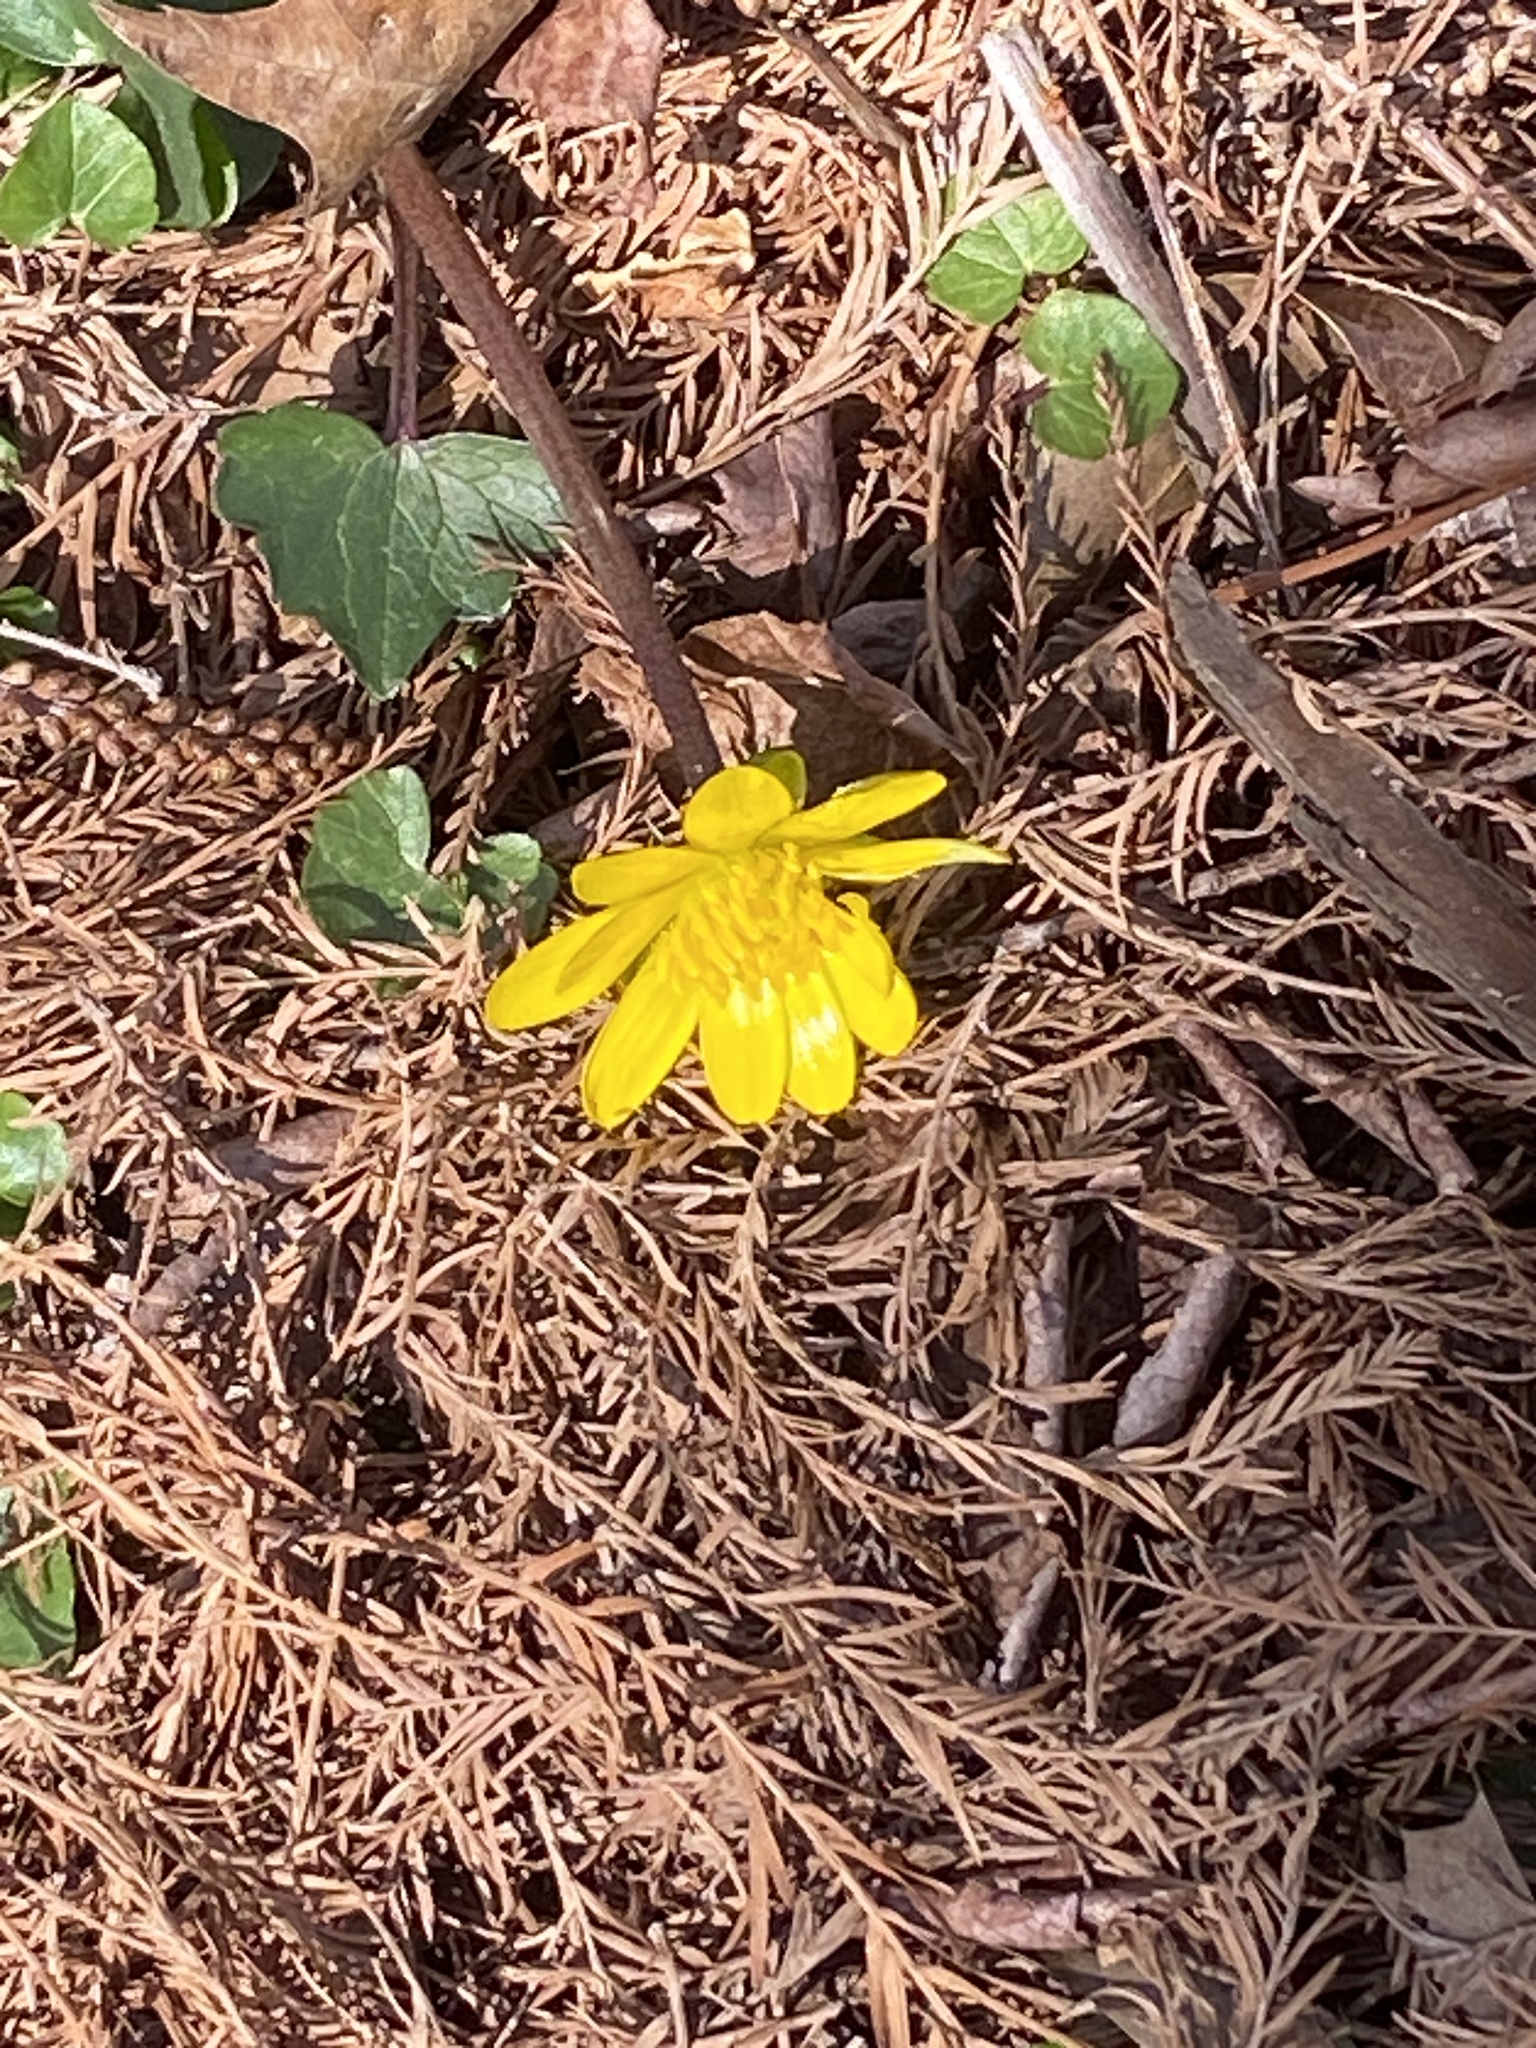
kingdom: Plantae
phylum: Tracheophyta
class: Magnoliopsida
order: Ranunculales
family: Ranunculaceae
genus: Ficaria
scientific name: Ficaria verna
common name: Lesser celandine
